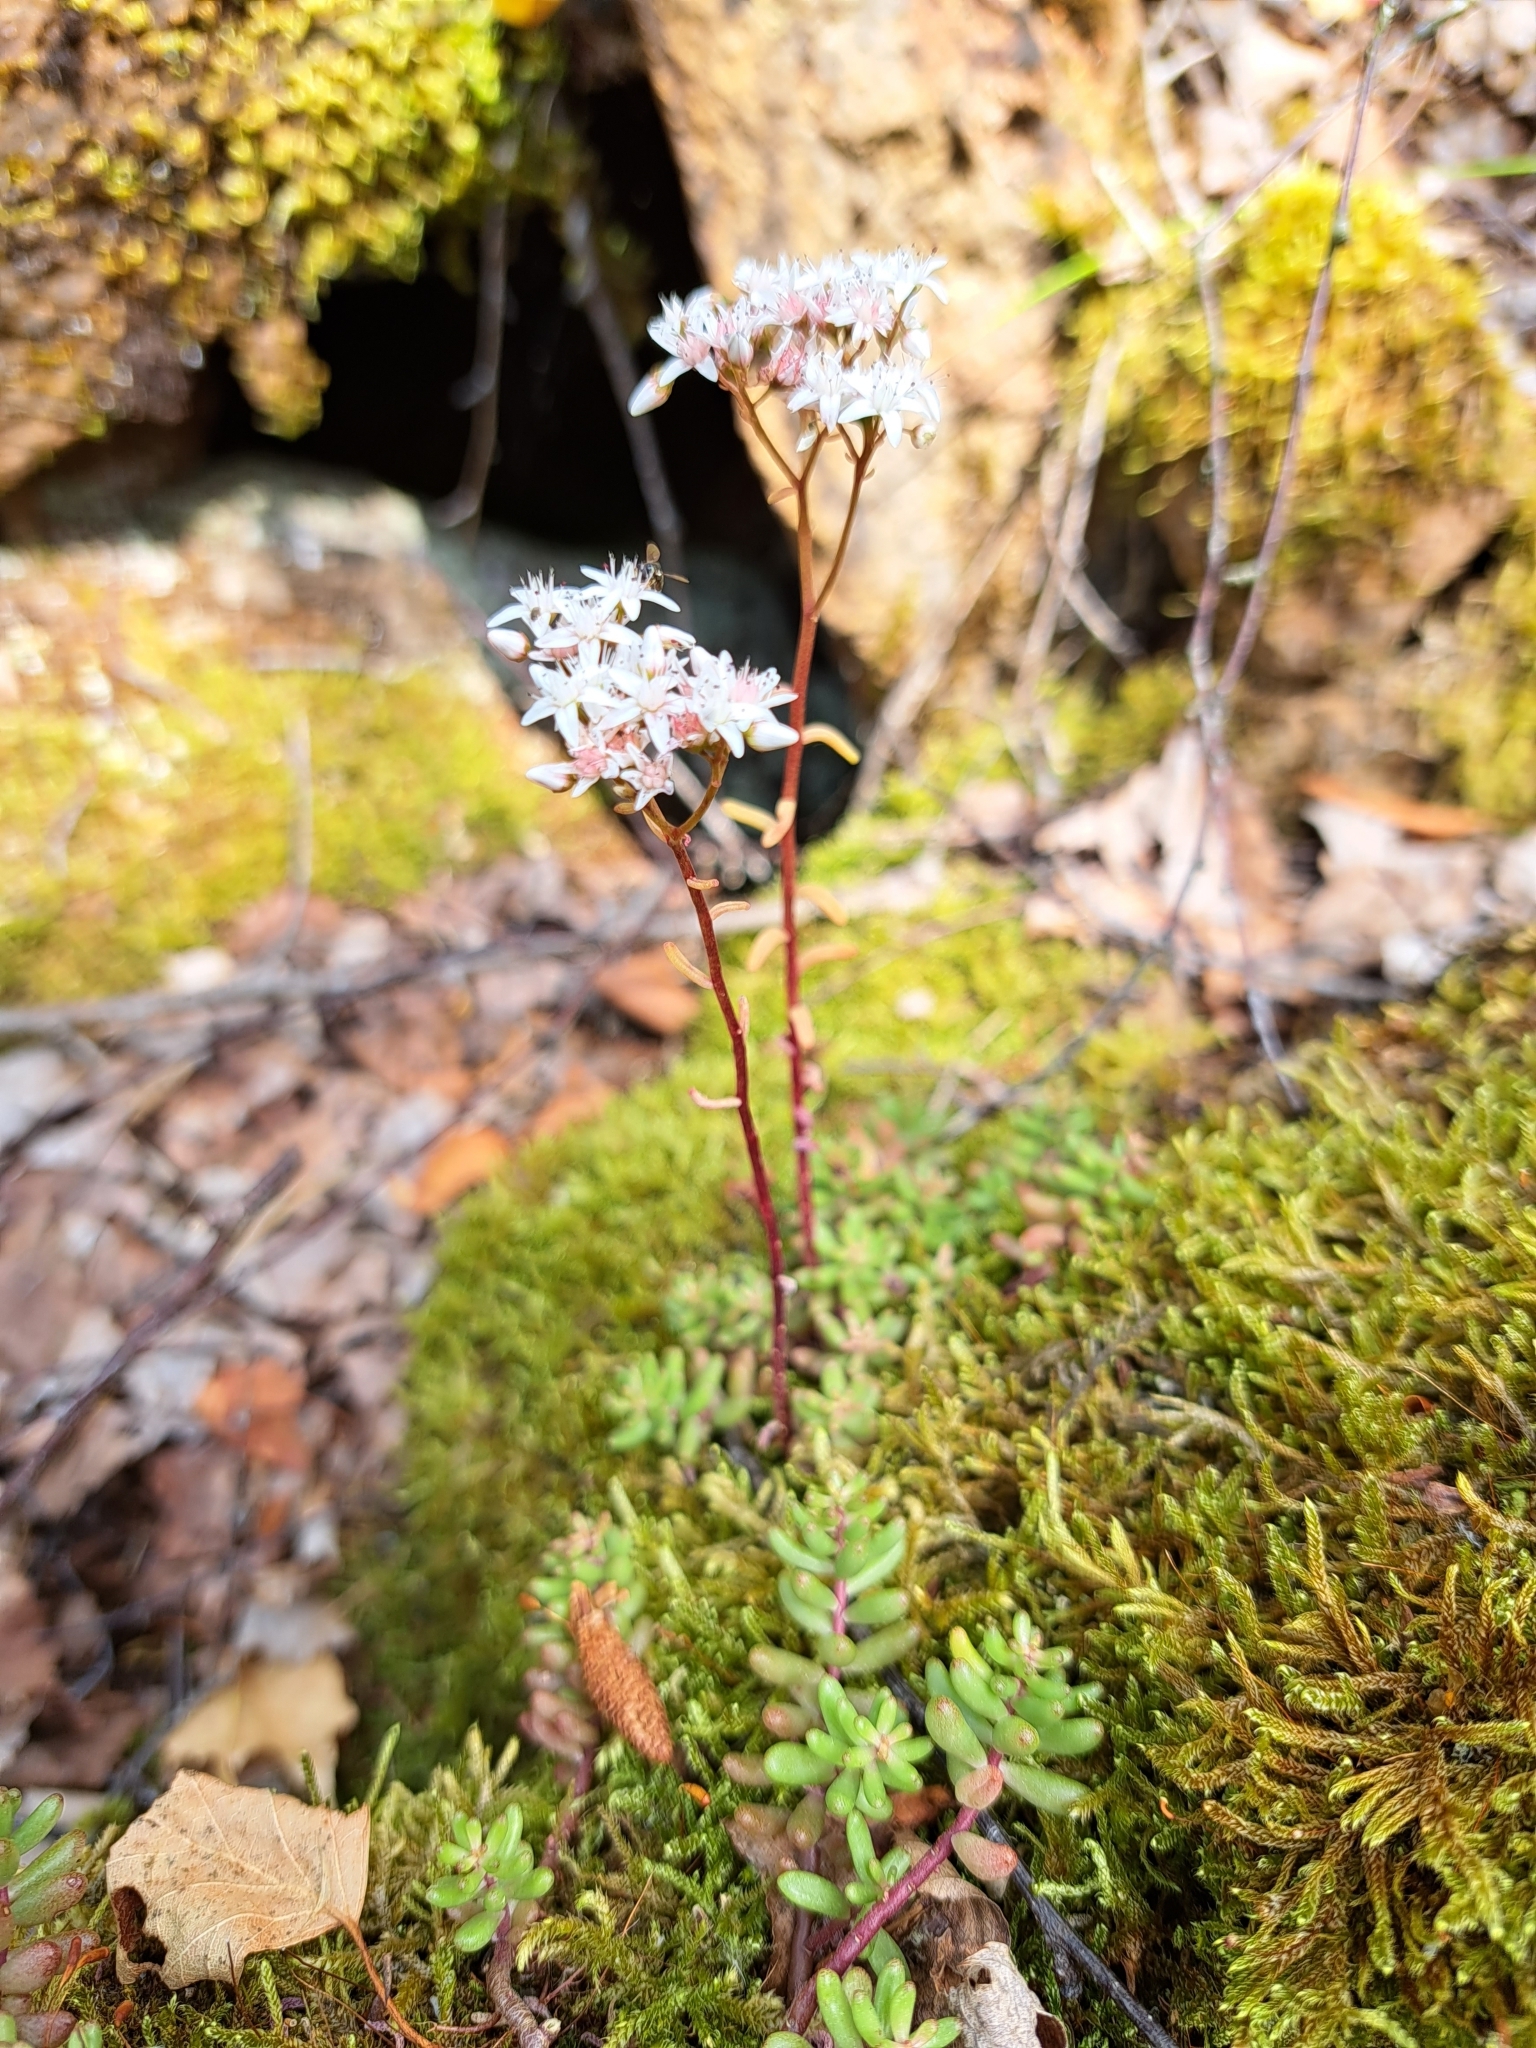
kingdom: Plantae
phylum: Tracheophyta
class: Magnoliopsida
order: Saxifragales
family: Crassulaceae
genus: Sedum
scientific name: Sedum album
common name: White stonecrop
